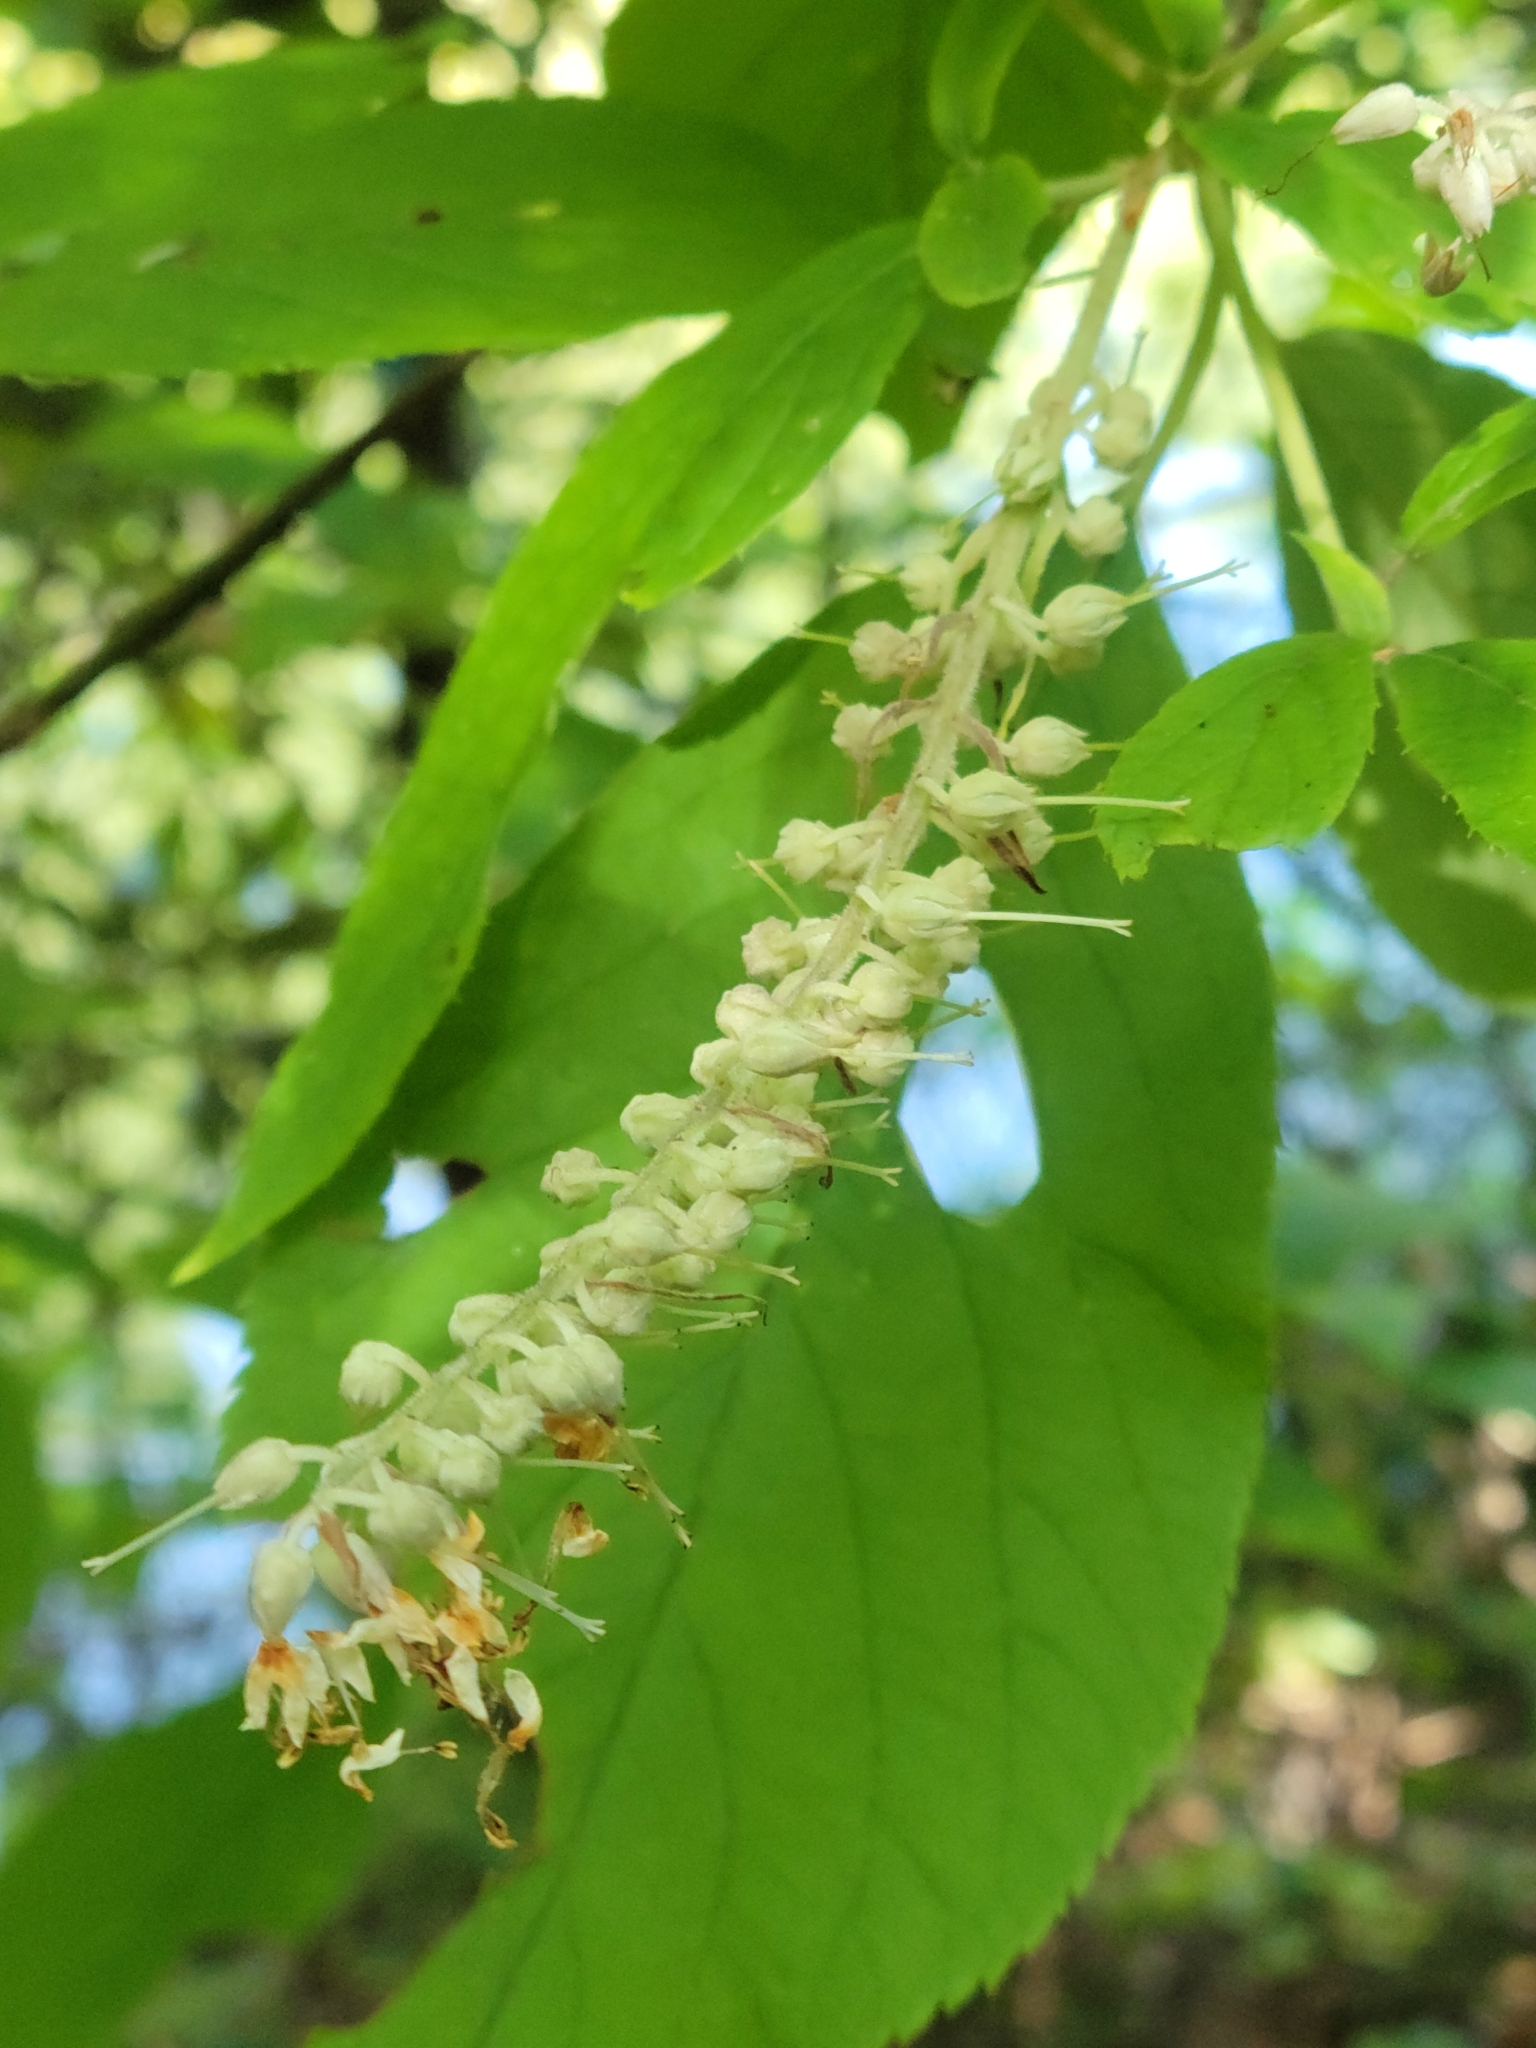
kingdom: Plantae
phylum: Tracheophyta
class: Magnoliopsida
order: Ericales
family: Clethraceae
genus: Clethra
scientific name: Clethra acuminata
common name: Mountain sweet pepperbush
